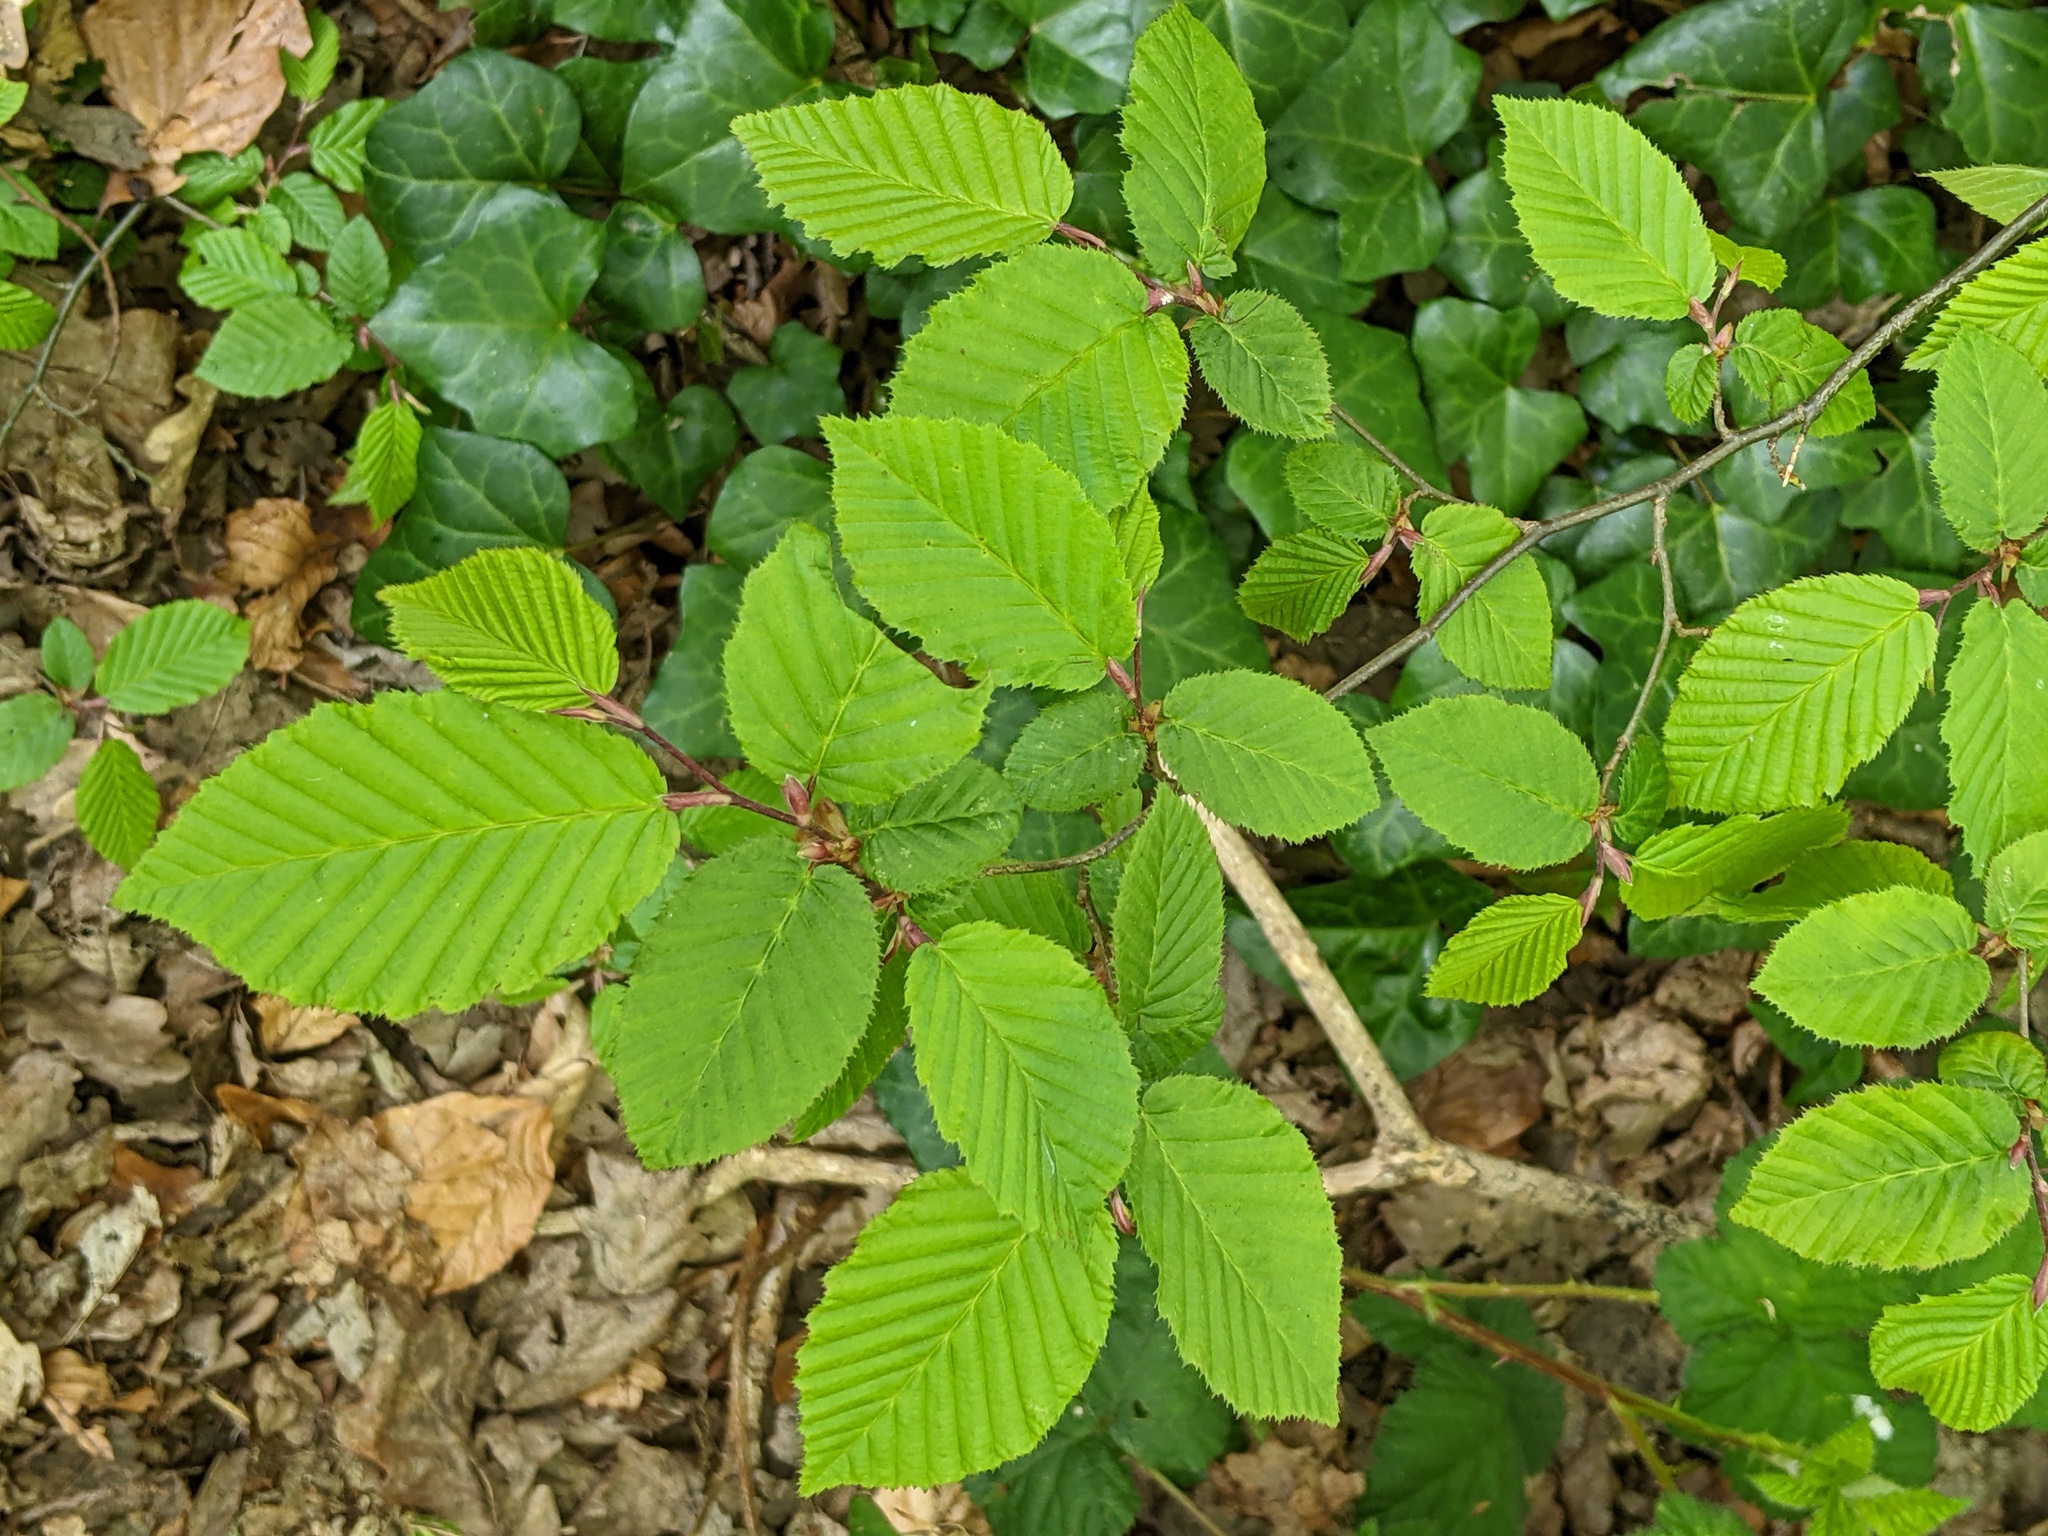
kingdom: Plantae
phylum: Tracheophyta
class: Magnoliopsida
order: Fagales
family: Betulaceae
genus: Carpinus
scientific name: Carpinus betulus
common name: Hornbeam
